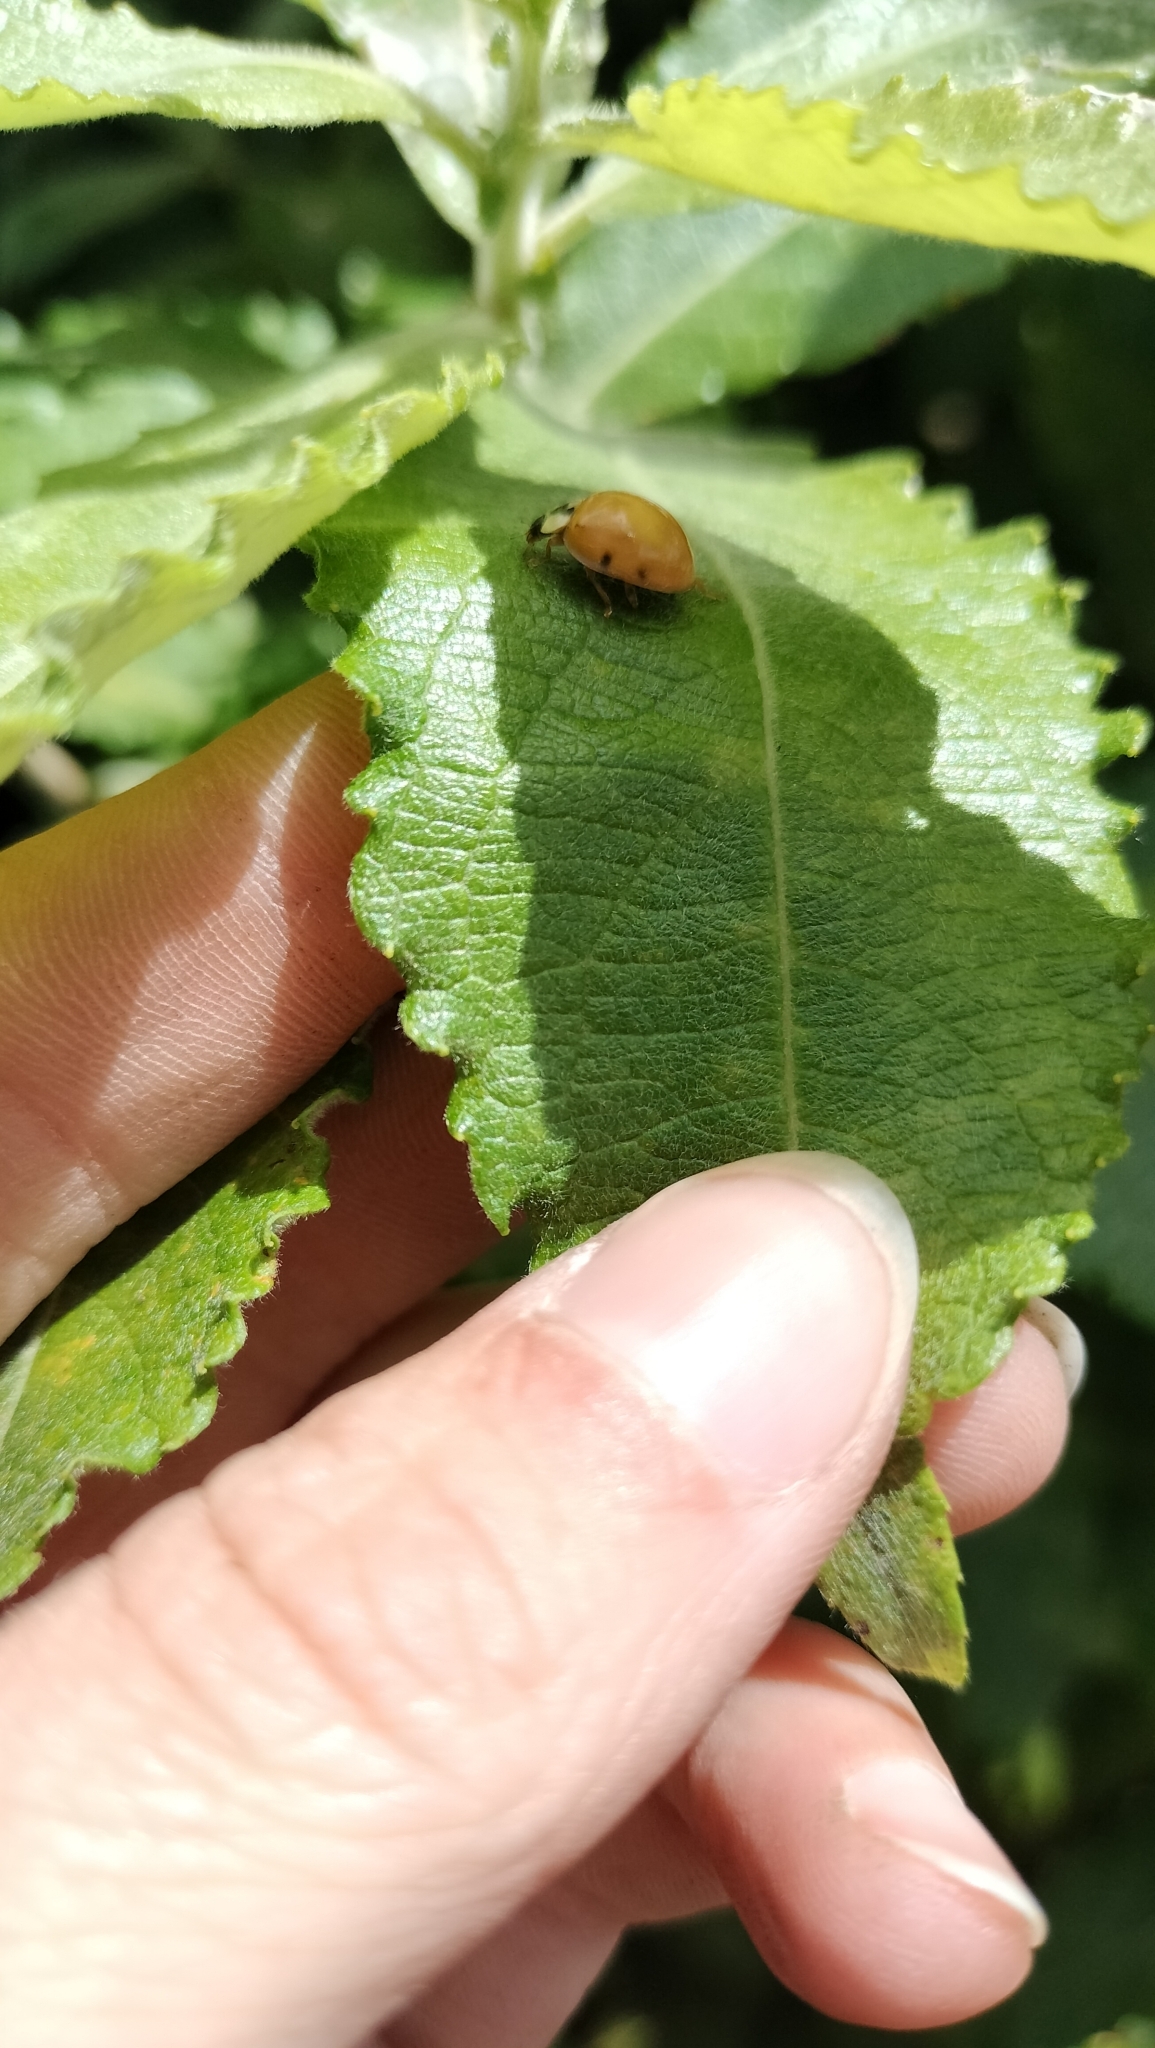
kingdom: Animalia
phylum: Arthropoda
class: Insecta
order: Coleoptera
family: Coccinellidae
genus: Harmonia
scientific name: Harmonia axyridis
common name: Harlequin ladybird
